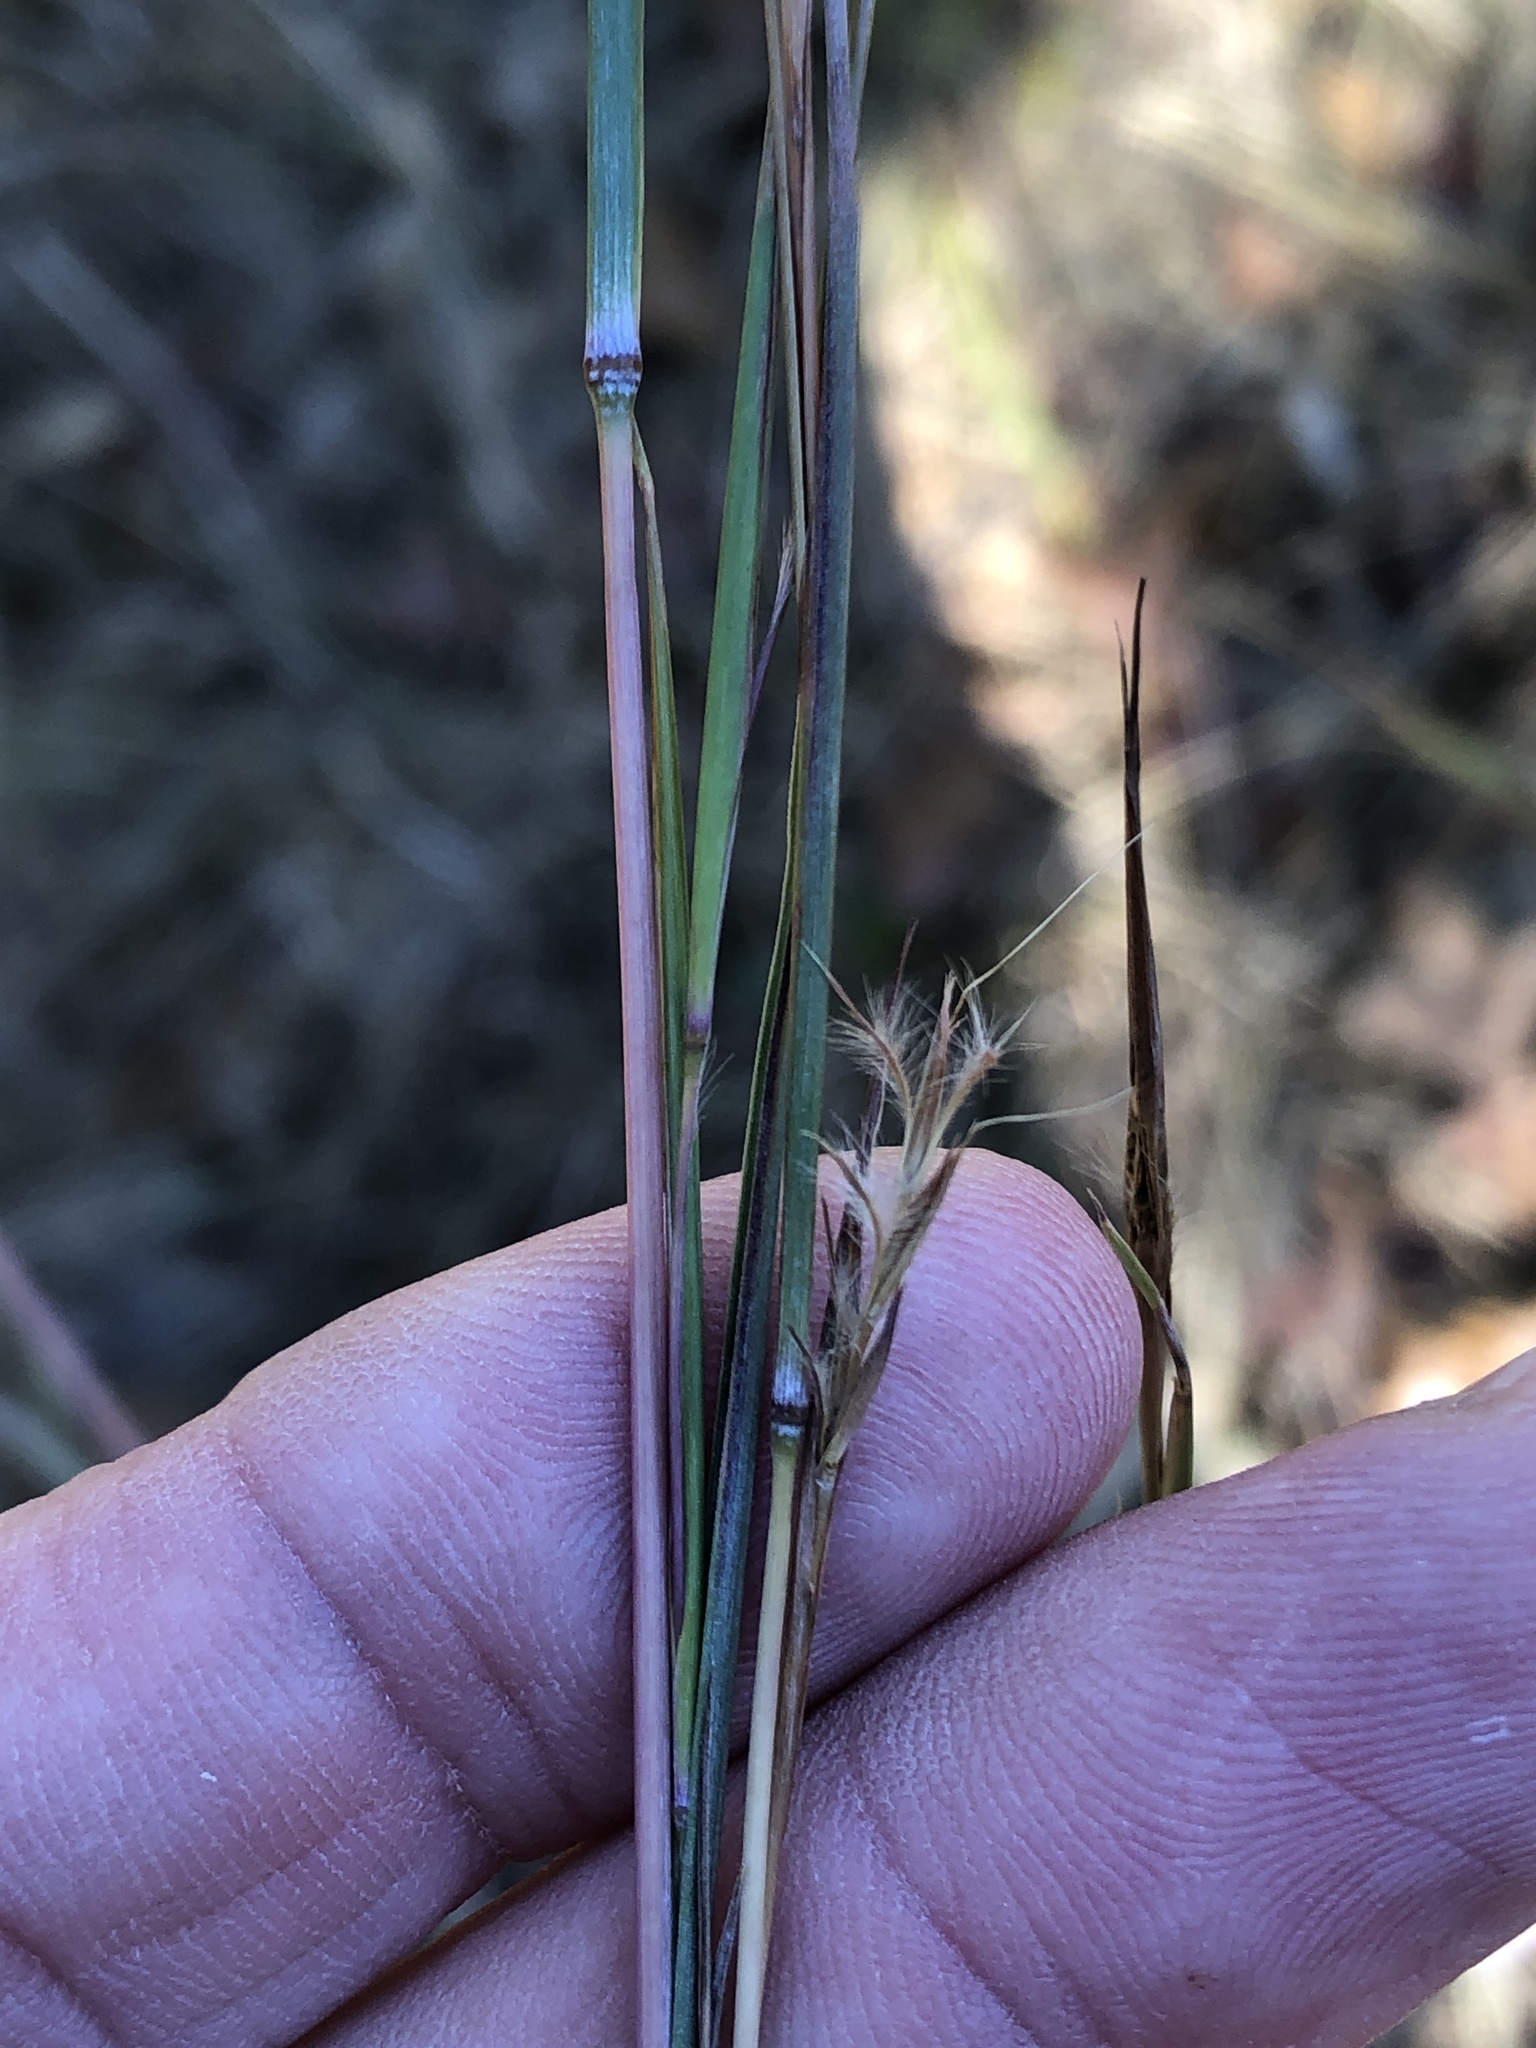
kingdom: Plantae
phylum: Tracheophyta
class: Liliopsida
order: Poales
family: Poaceae
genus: Schizachyrium
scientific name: Schizachyrium scoparium
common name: Little bluestem
